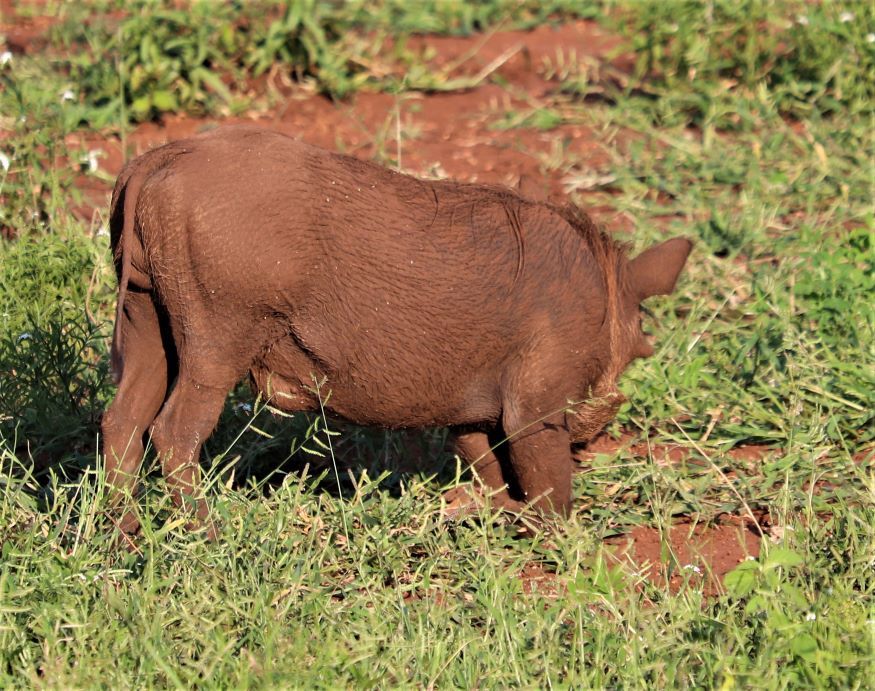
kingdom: Animalia
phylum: Chordata
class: Mammalia
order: Artiodactyla
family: Suidae
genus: Phacochoerus
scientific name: Phacochoerus africanus
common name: Common warthog
